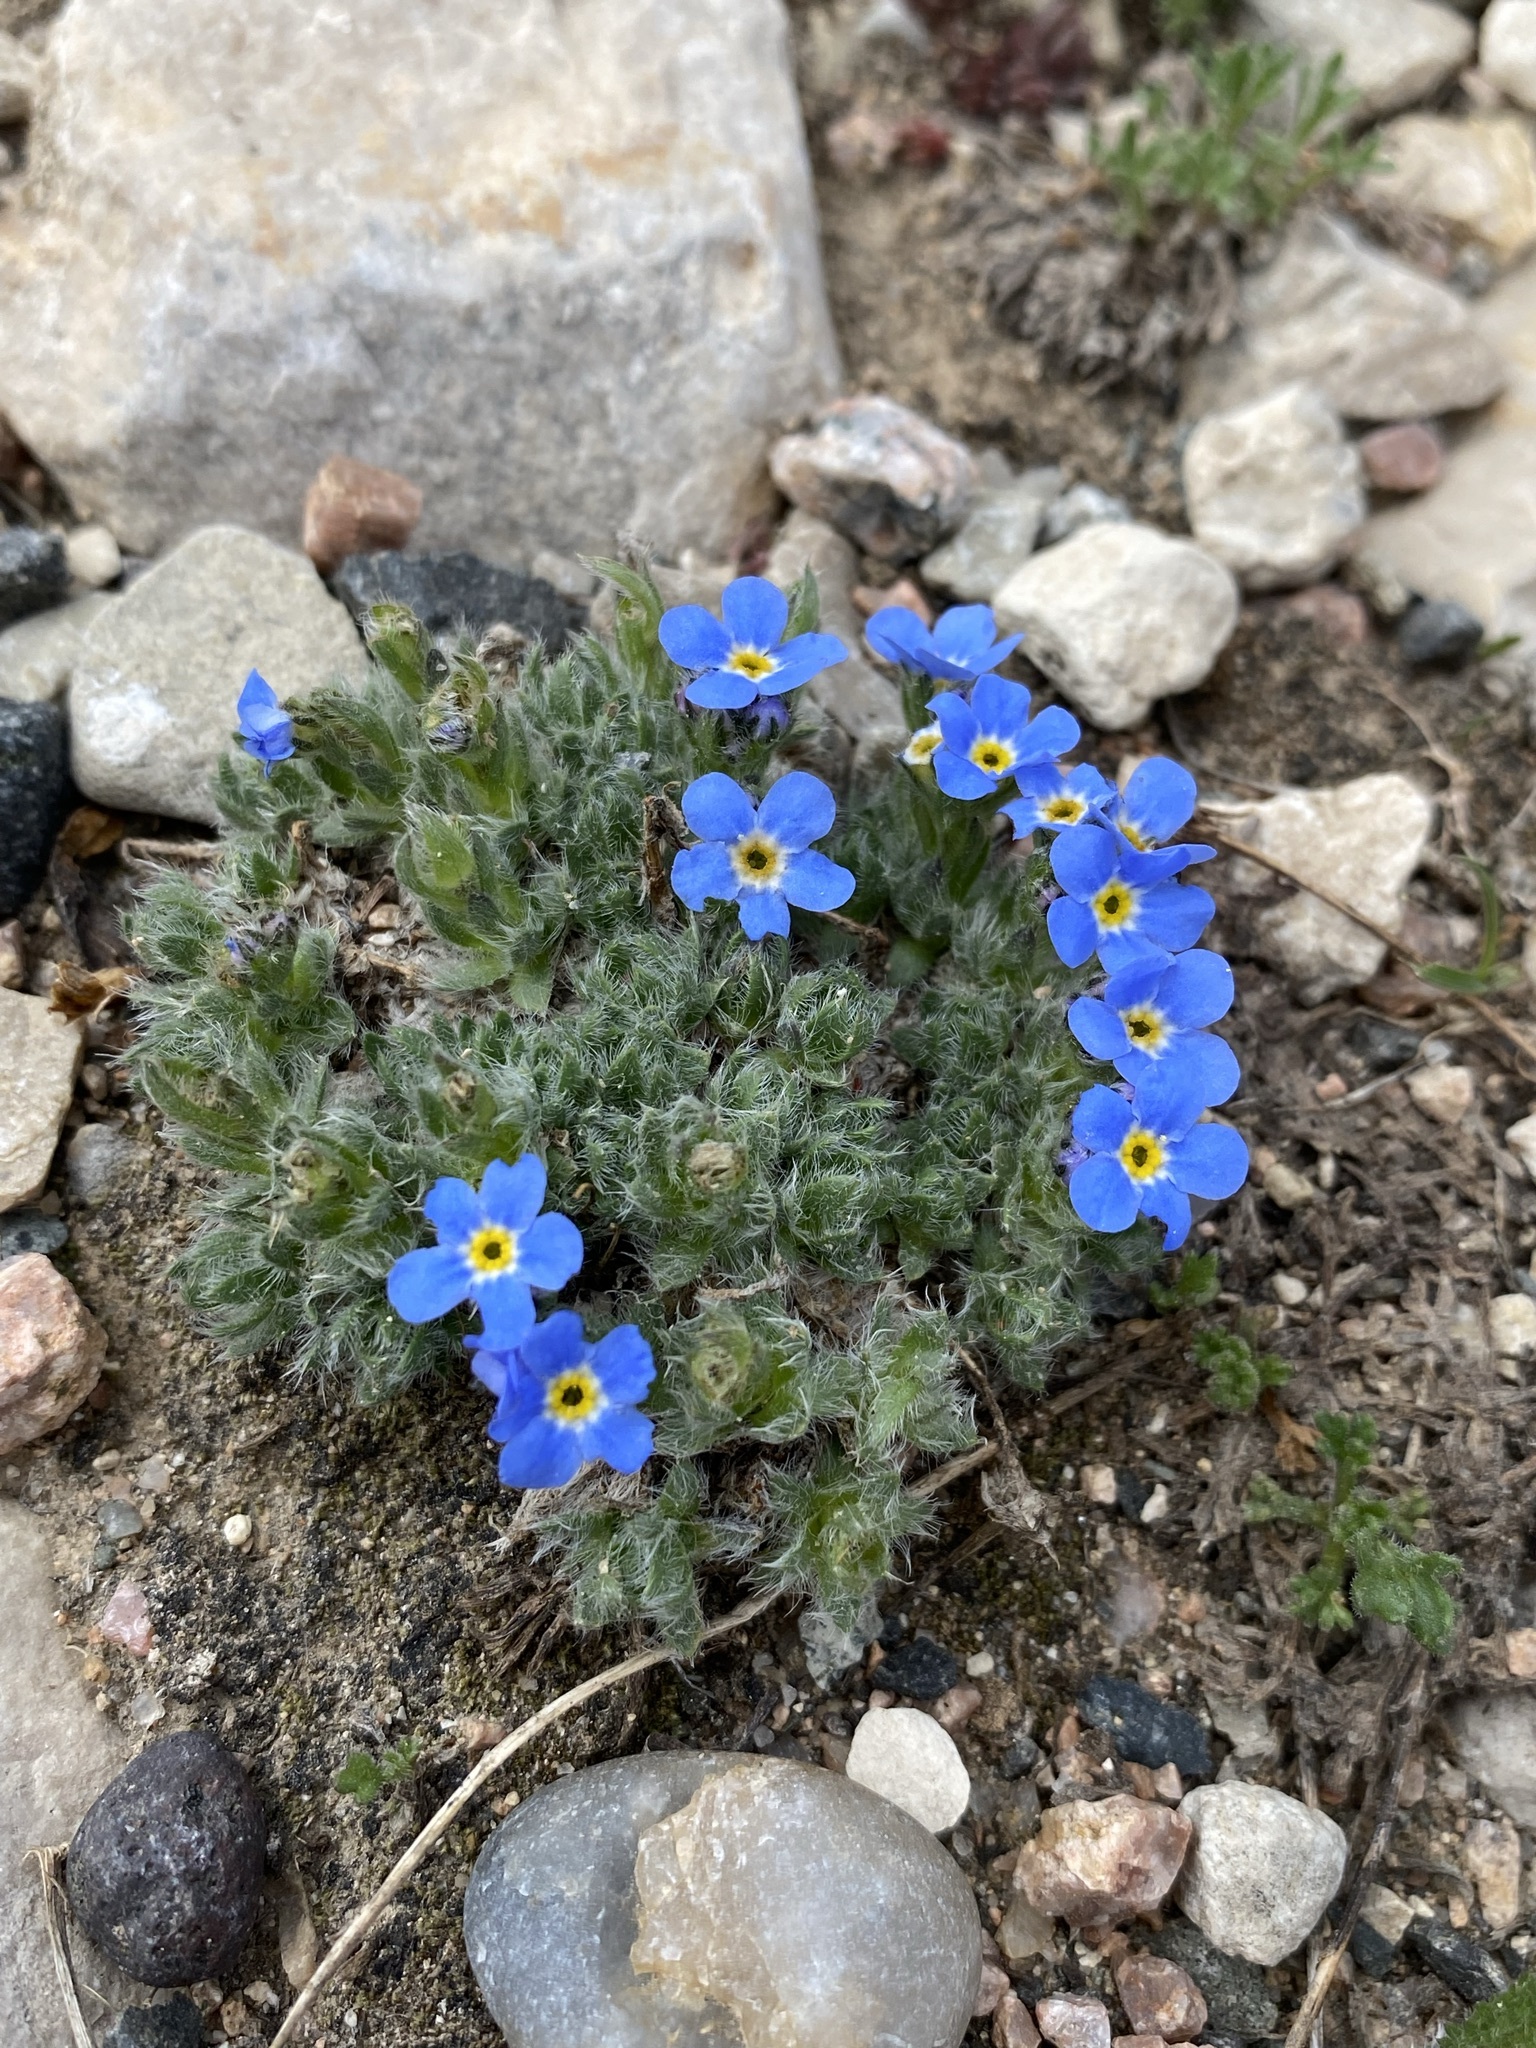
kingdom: Plantae
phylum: Tracheophyta
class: Magnoliopsida
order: Boraginales
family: Boraginaceae
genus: Eritrichium
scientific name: Eritrichium argenteum
